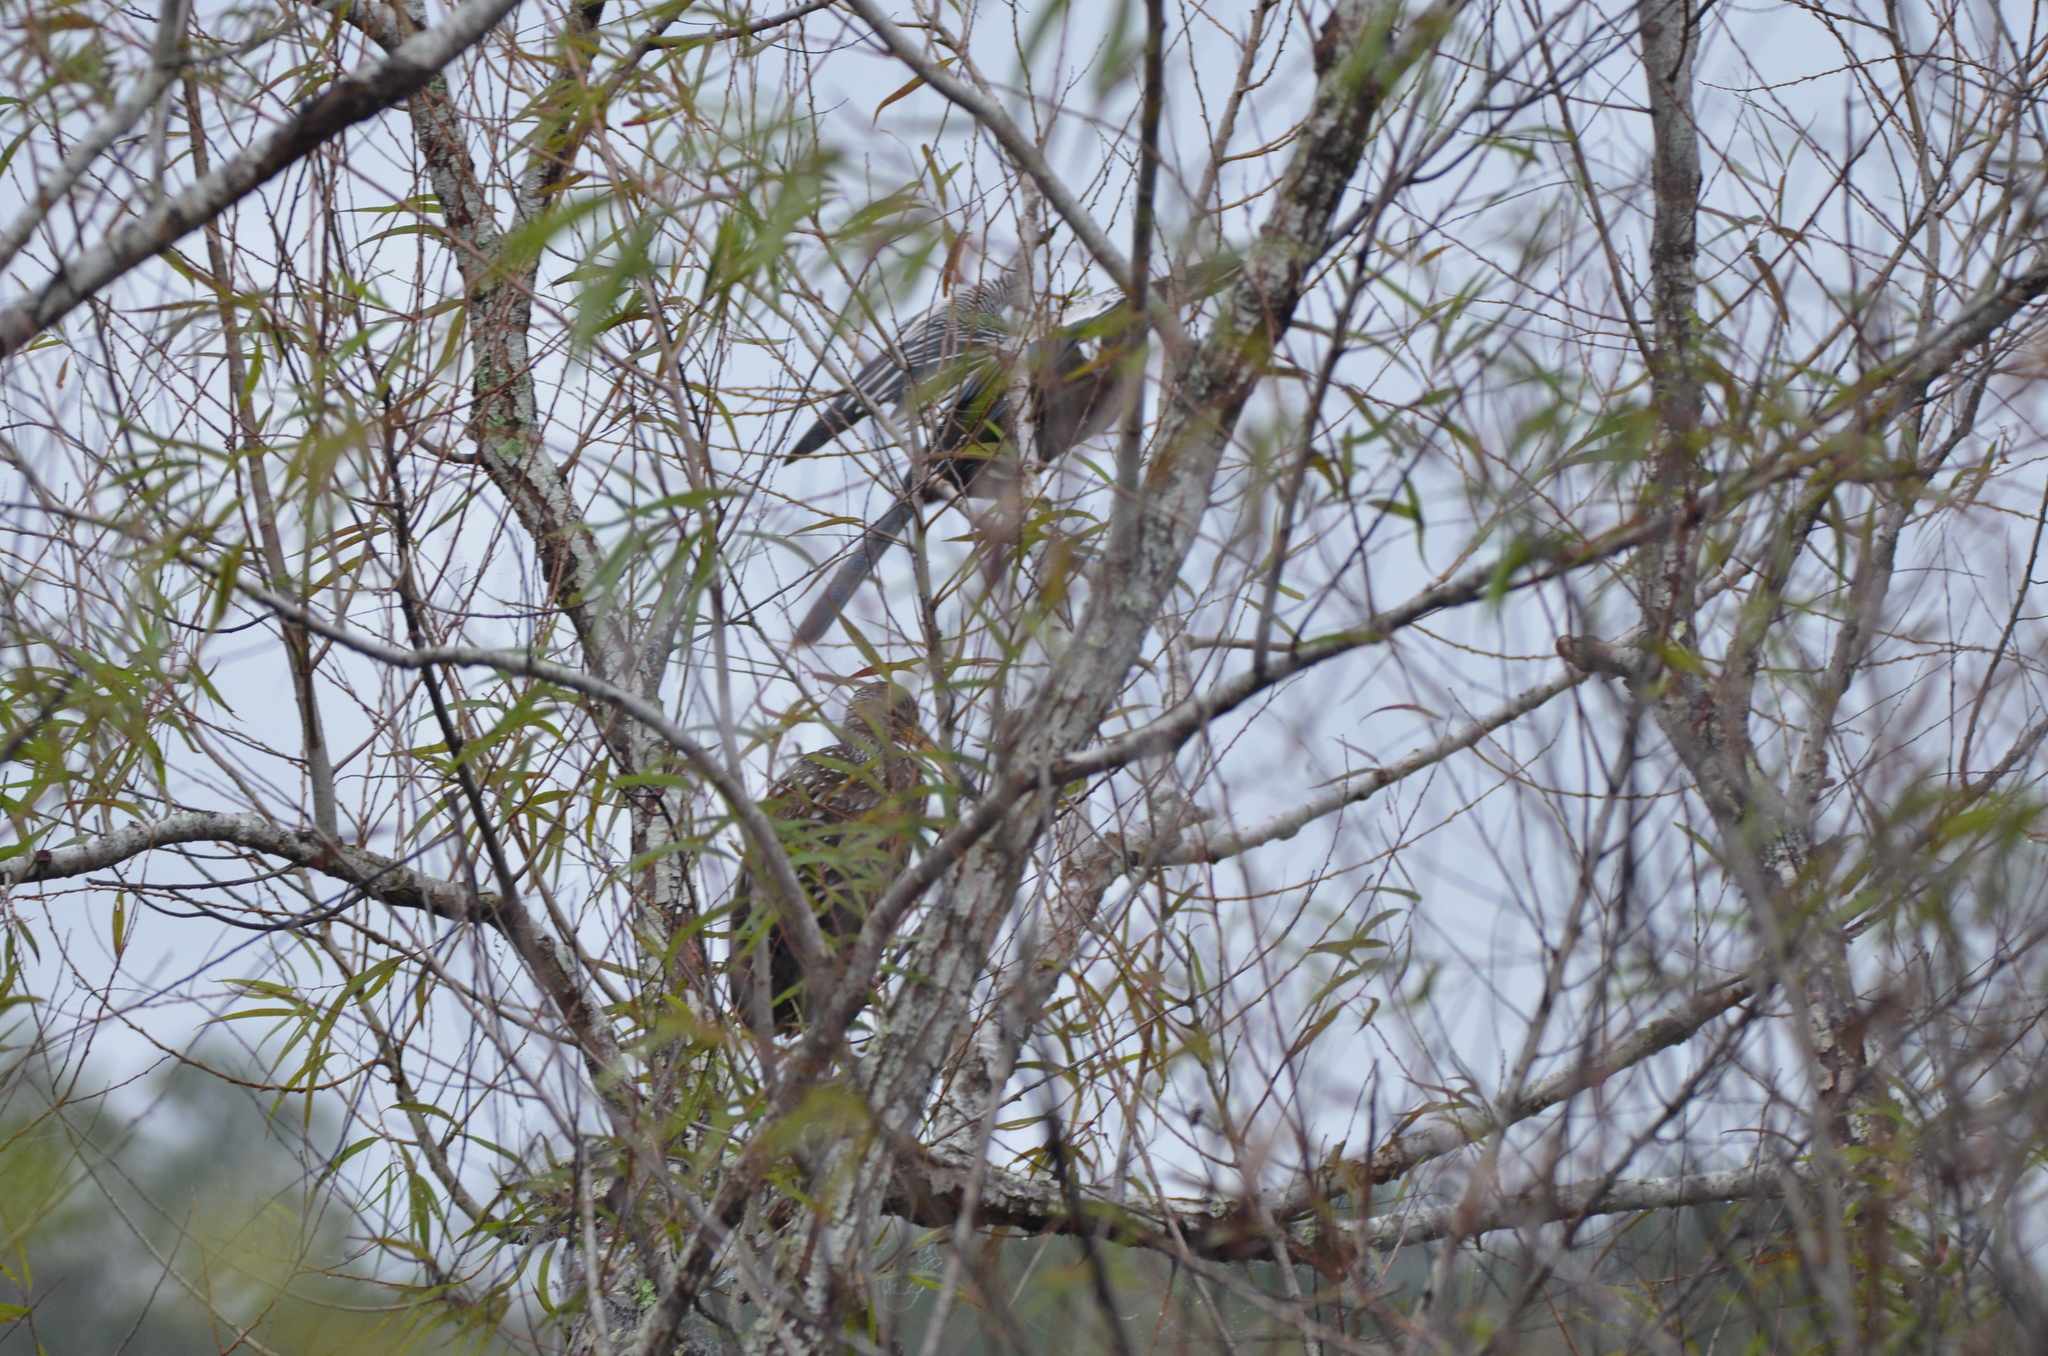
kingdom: Animalia
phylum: Chordata
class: Aves
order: Gruiformes
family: Aramidae
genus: Aramus
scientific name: Aramus guarauna
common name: Limpkin
